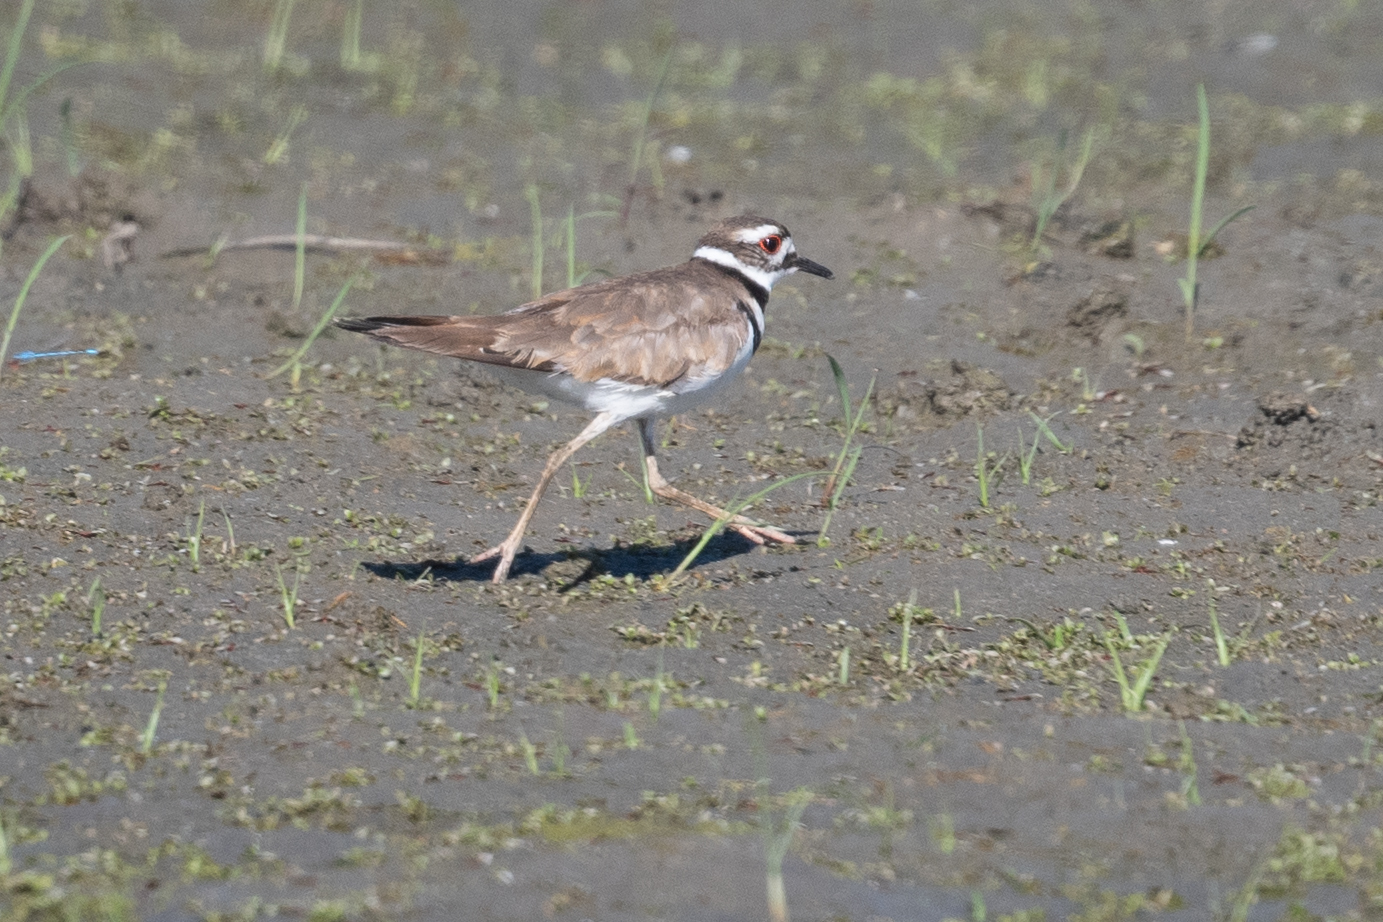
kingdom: Animalia
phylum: Chordata
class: Aves
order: Charadriiformes
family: Charadriidae
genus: Charadrius
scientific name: Charadrius vociferus
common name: Killdeer
